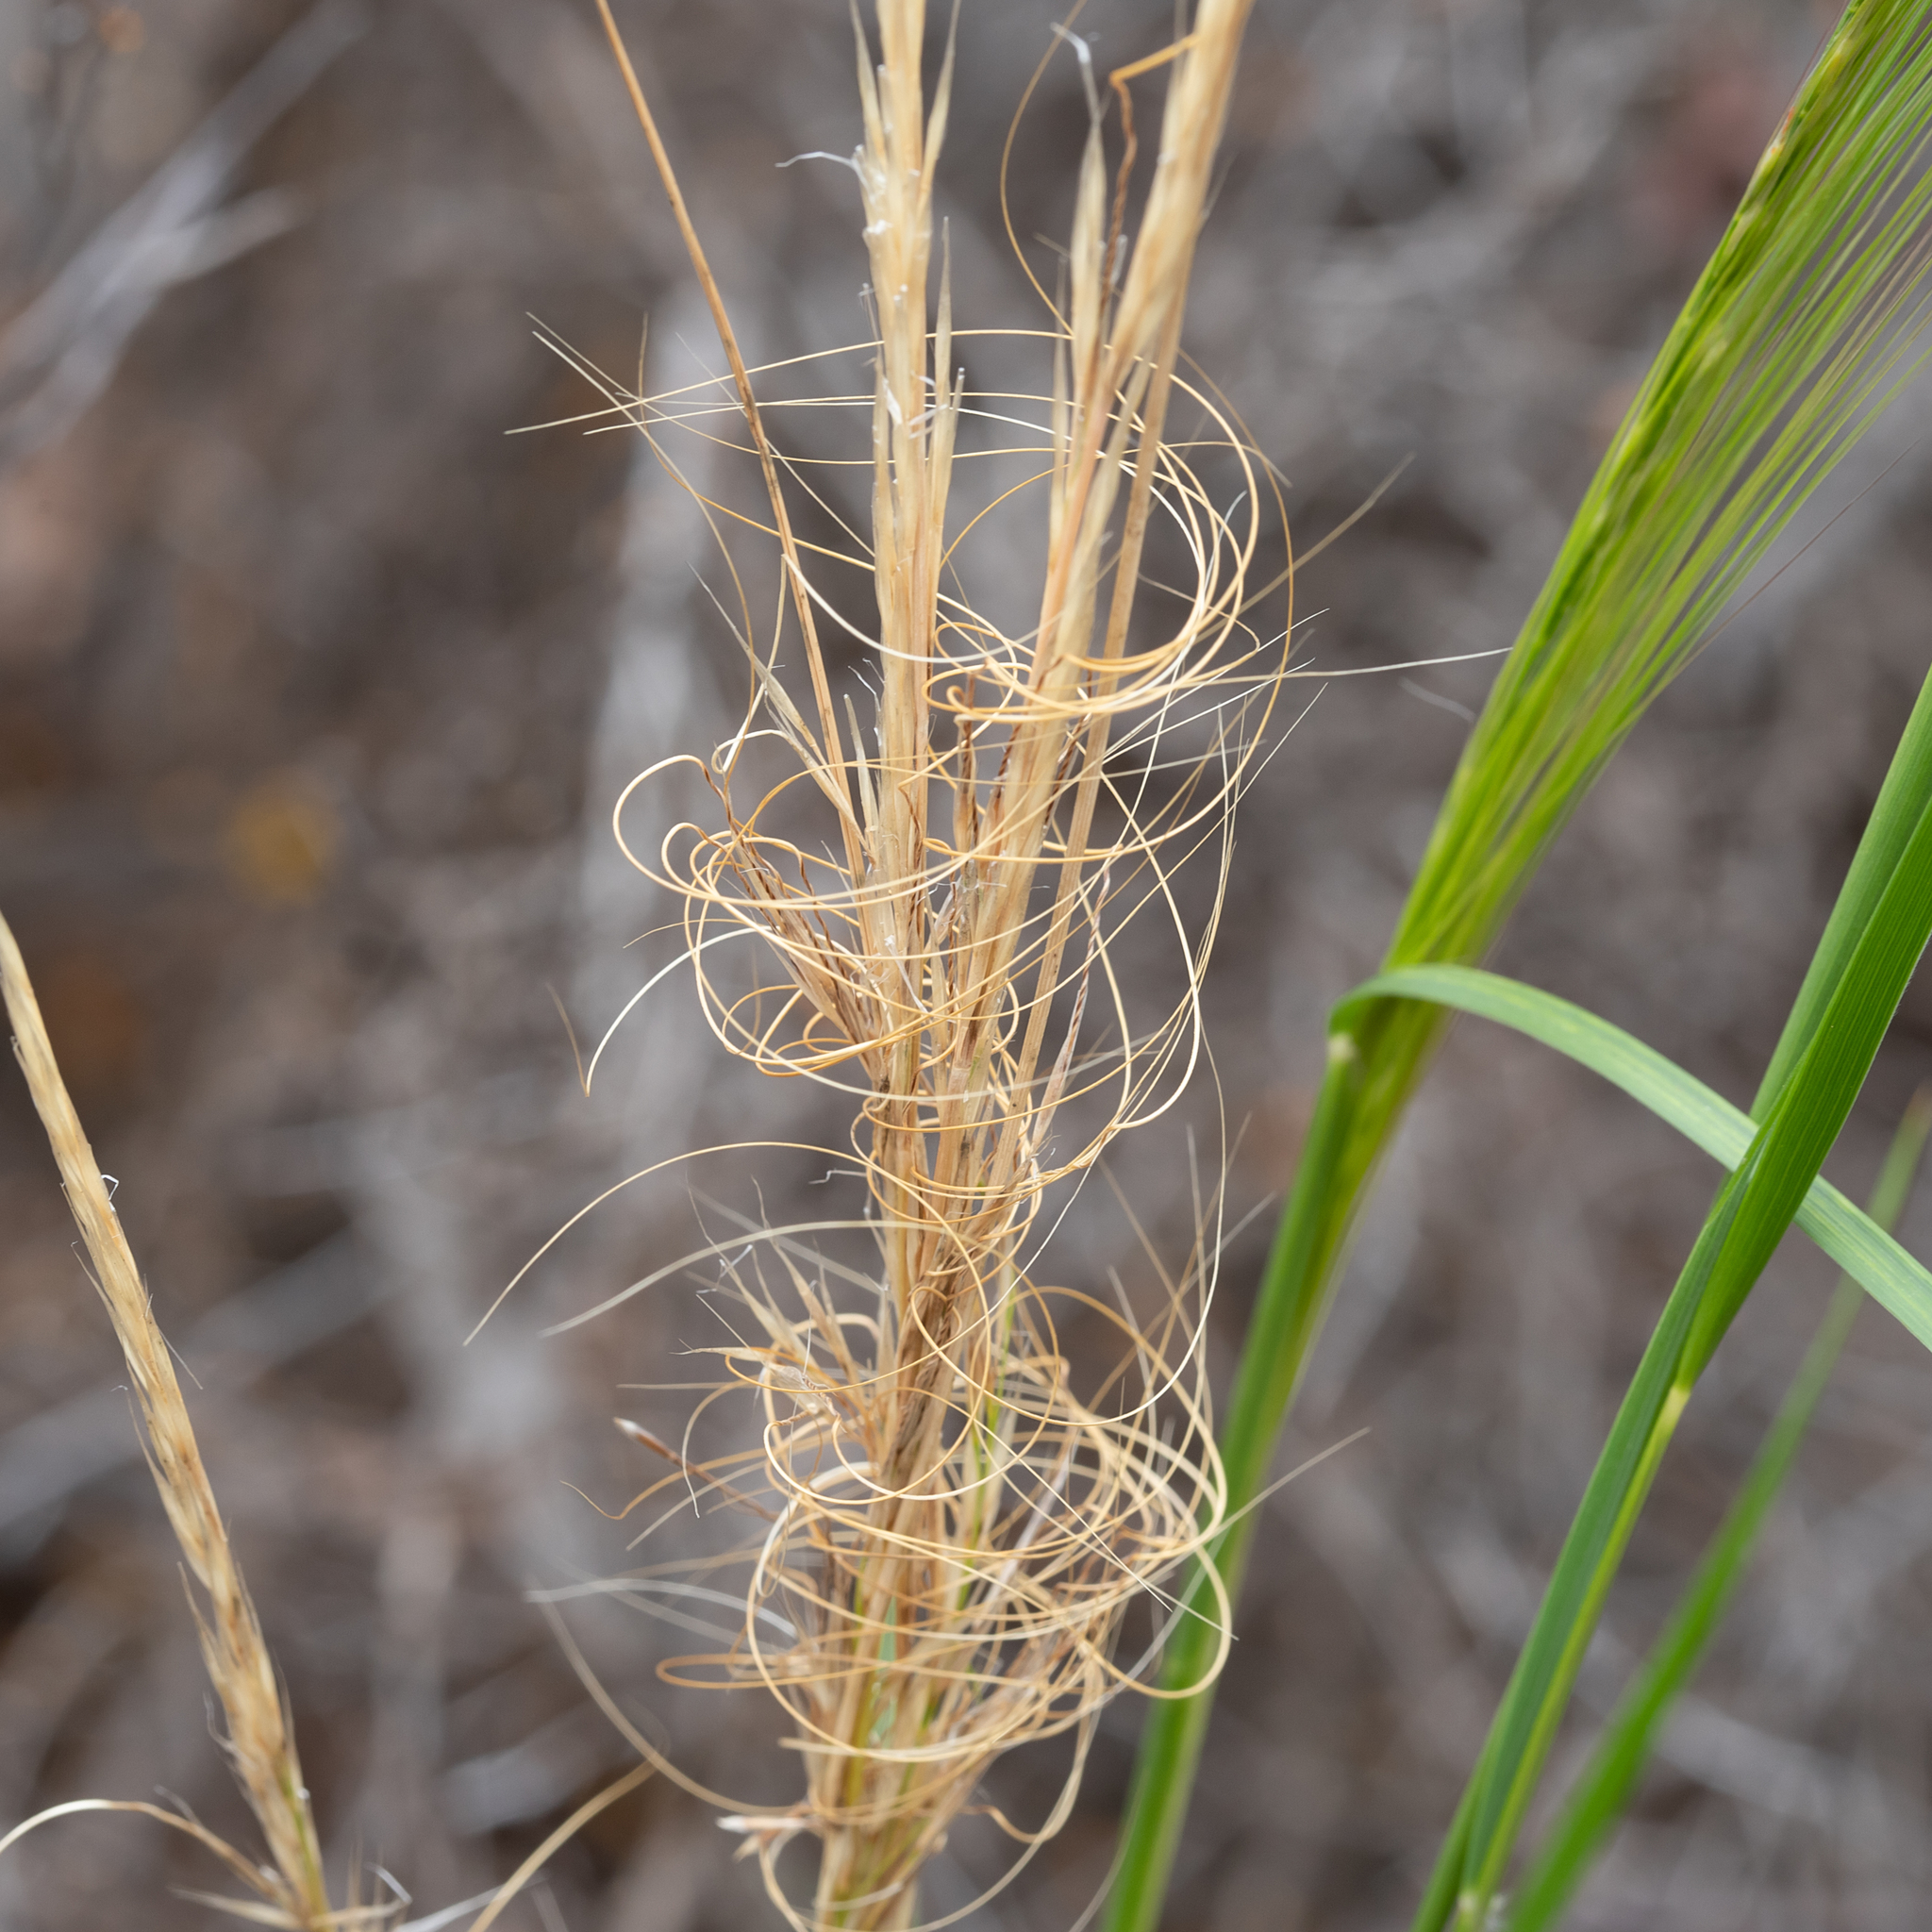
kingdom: Plantae
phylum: Tracheophyta
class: Liliopsida
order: Poales
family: Poaceae
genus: Austrostipa
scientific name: Austrostipa nitida
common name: Balcarra grass
